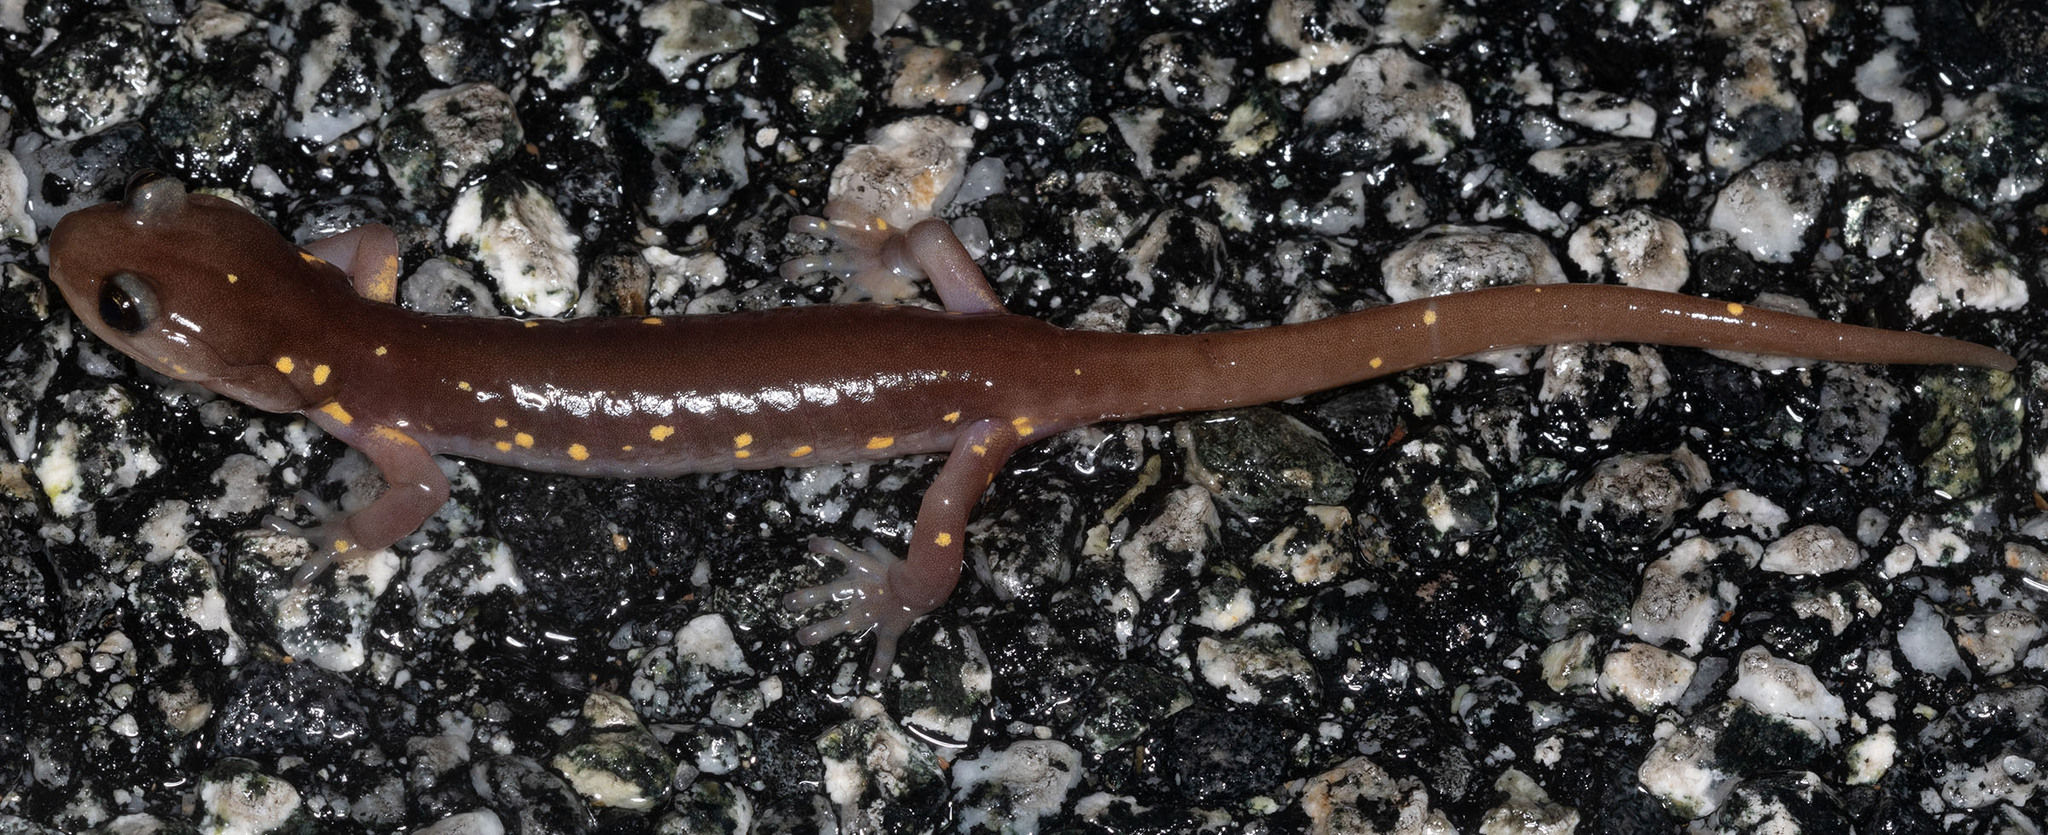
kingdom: Animalia
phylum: Chordata
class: Amphibia
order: Caudata
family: Plethodontidae
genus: Aneides
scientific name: Aneides lugubris
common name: Arboreal salamander
